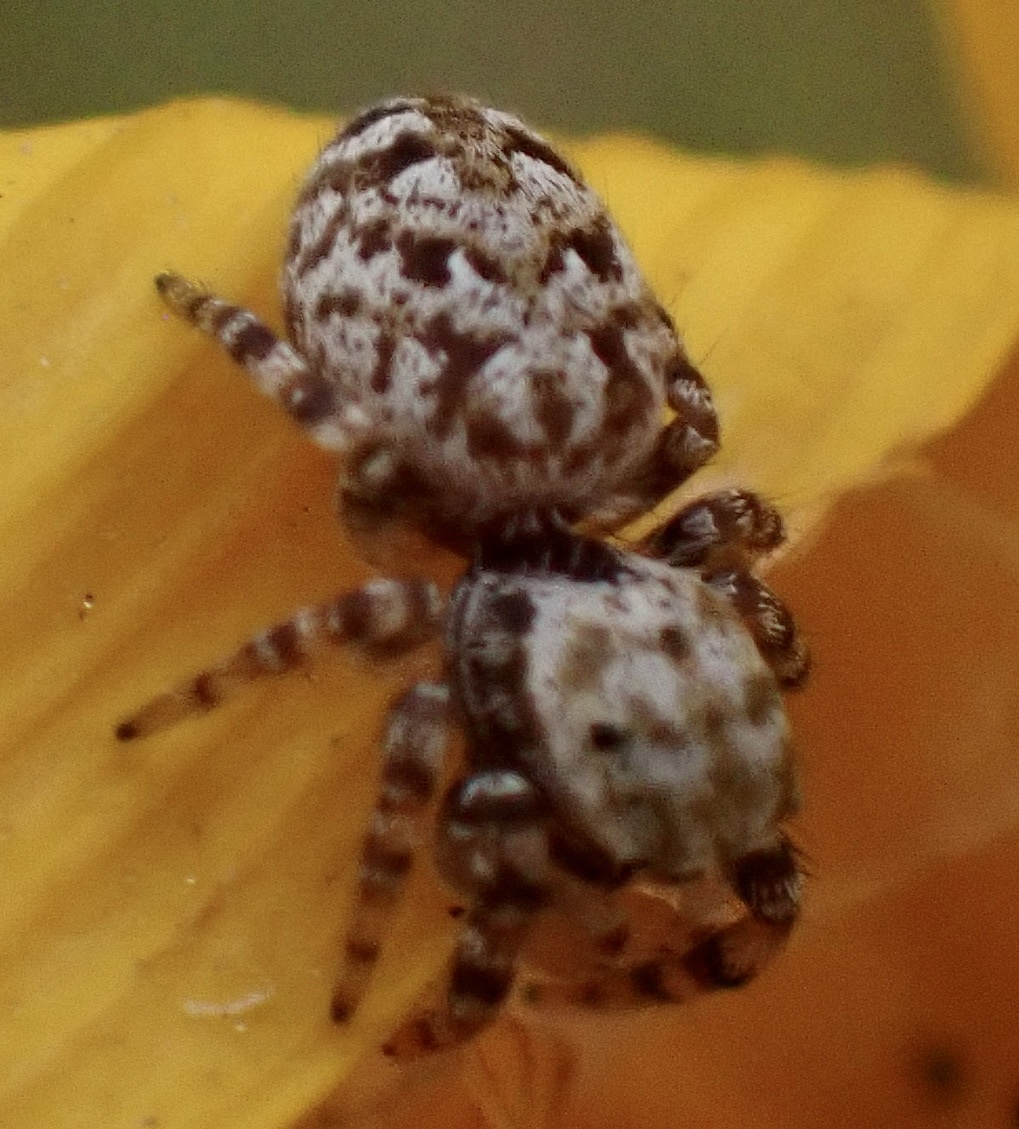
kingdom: Animalia
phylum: Arthropoda
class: Arachnida
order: Araneae
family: Salticidae
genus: Pelegrina
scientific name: Pelegrina galathea
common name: Jumping spiders
